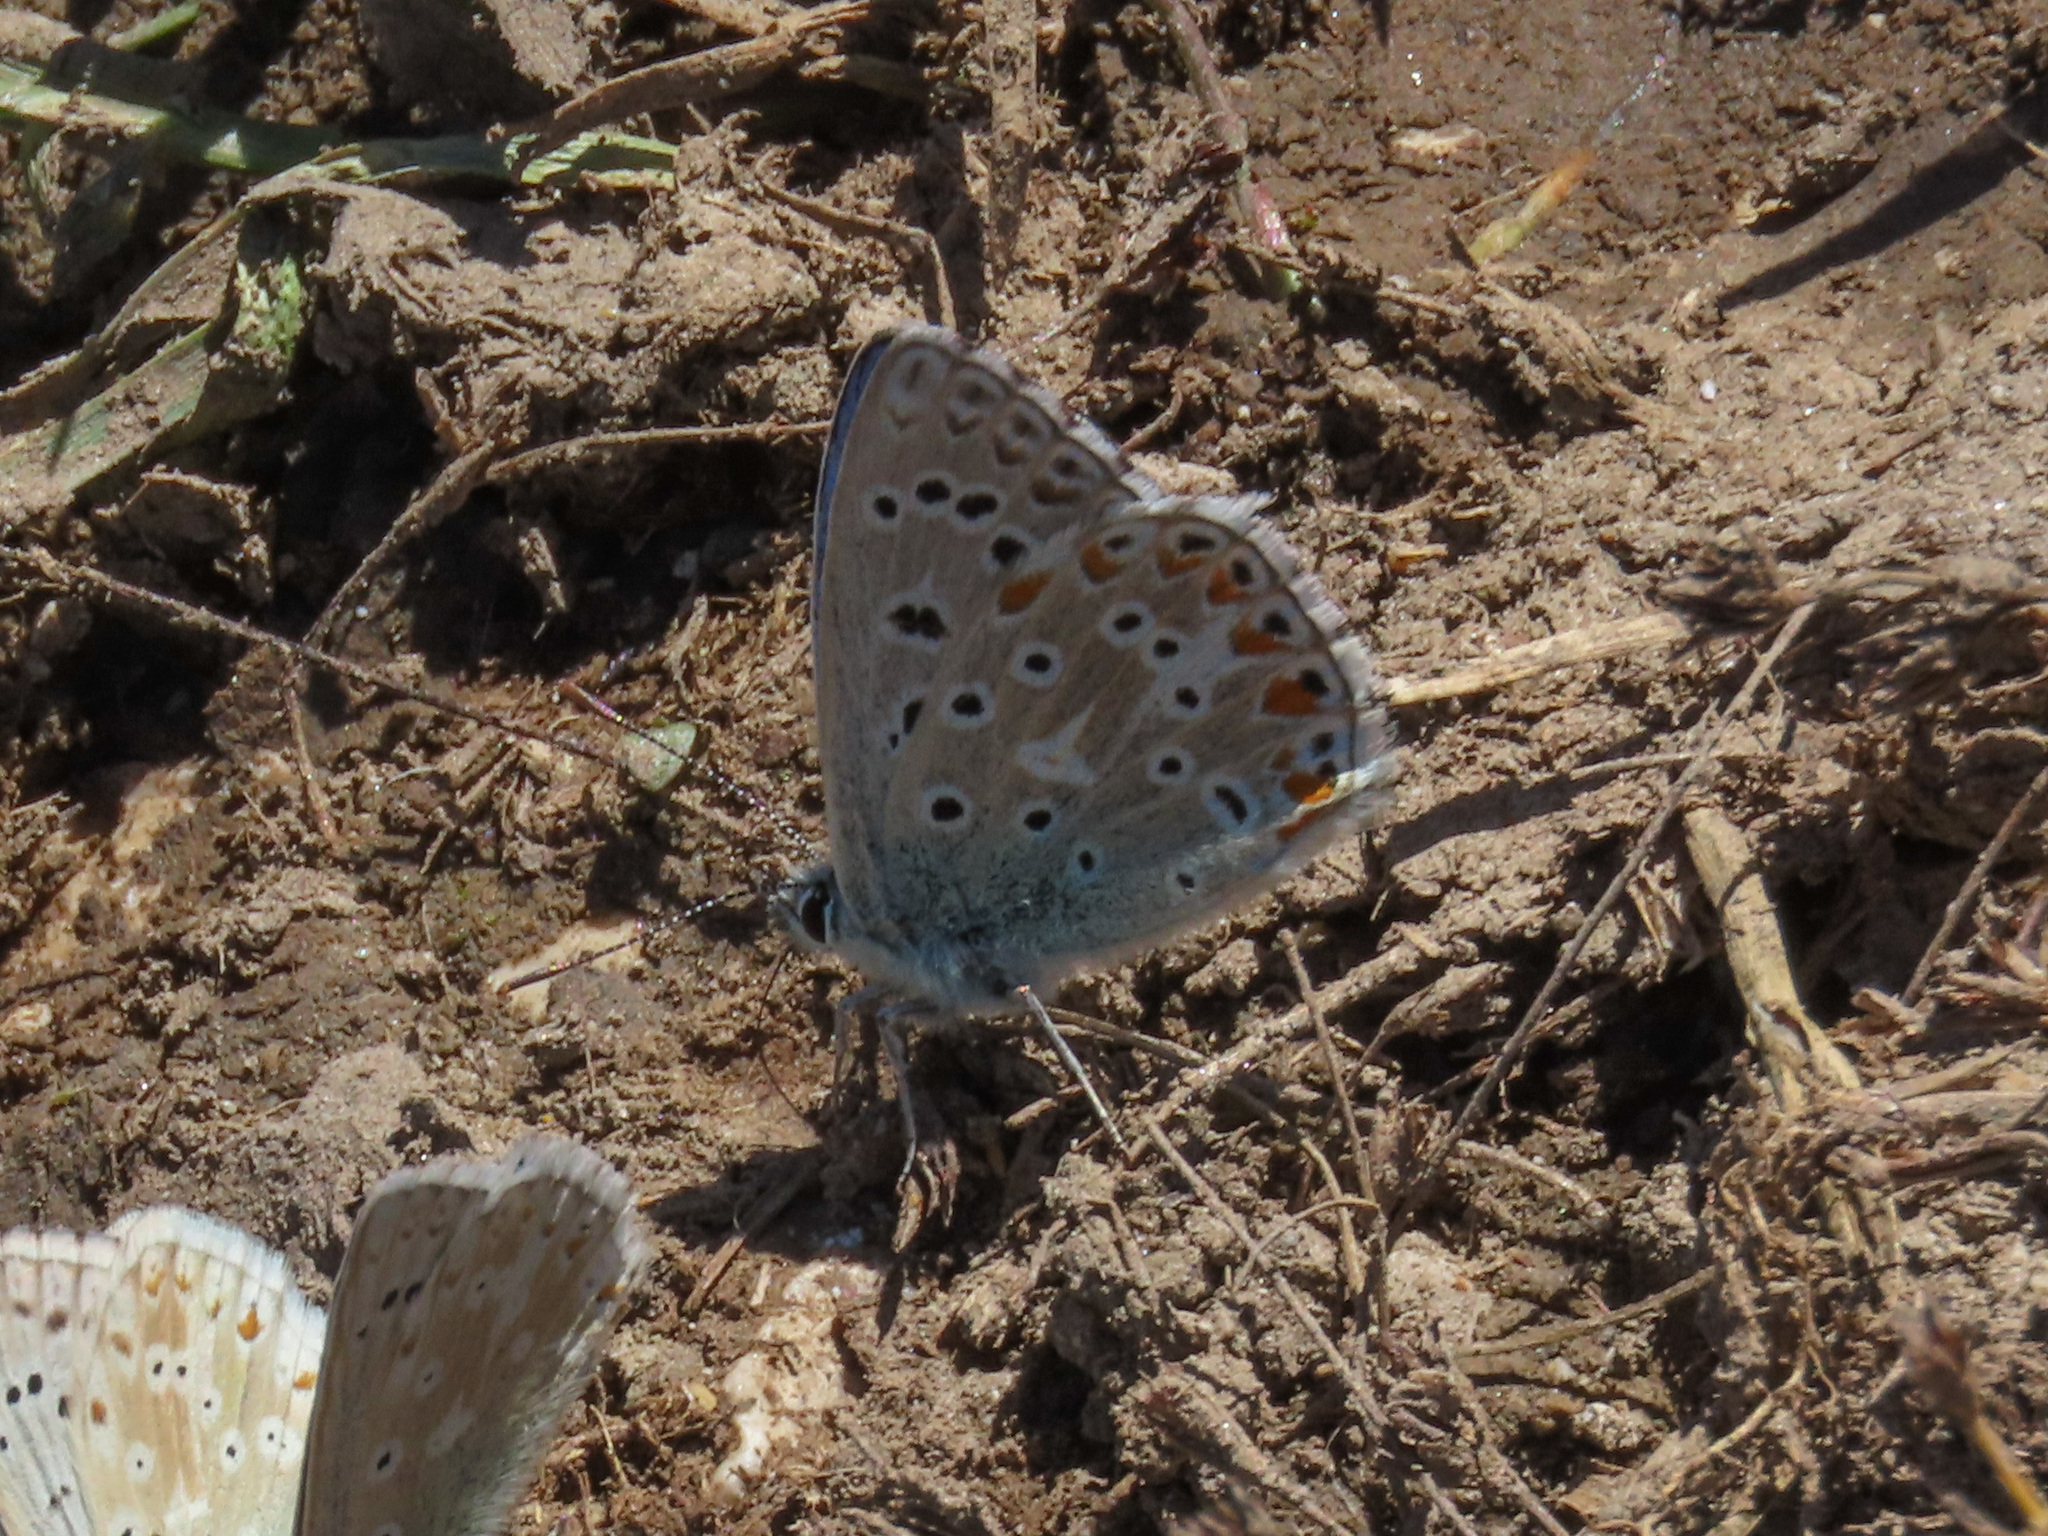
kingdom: Animalia
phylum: Arthropoda
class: Insecta
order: Lepidoptera
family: Lycaenidae
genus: Lysandra
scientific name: Lysandra bellargus
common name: Adonis blue
